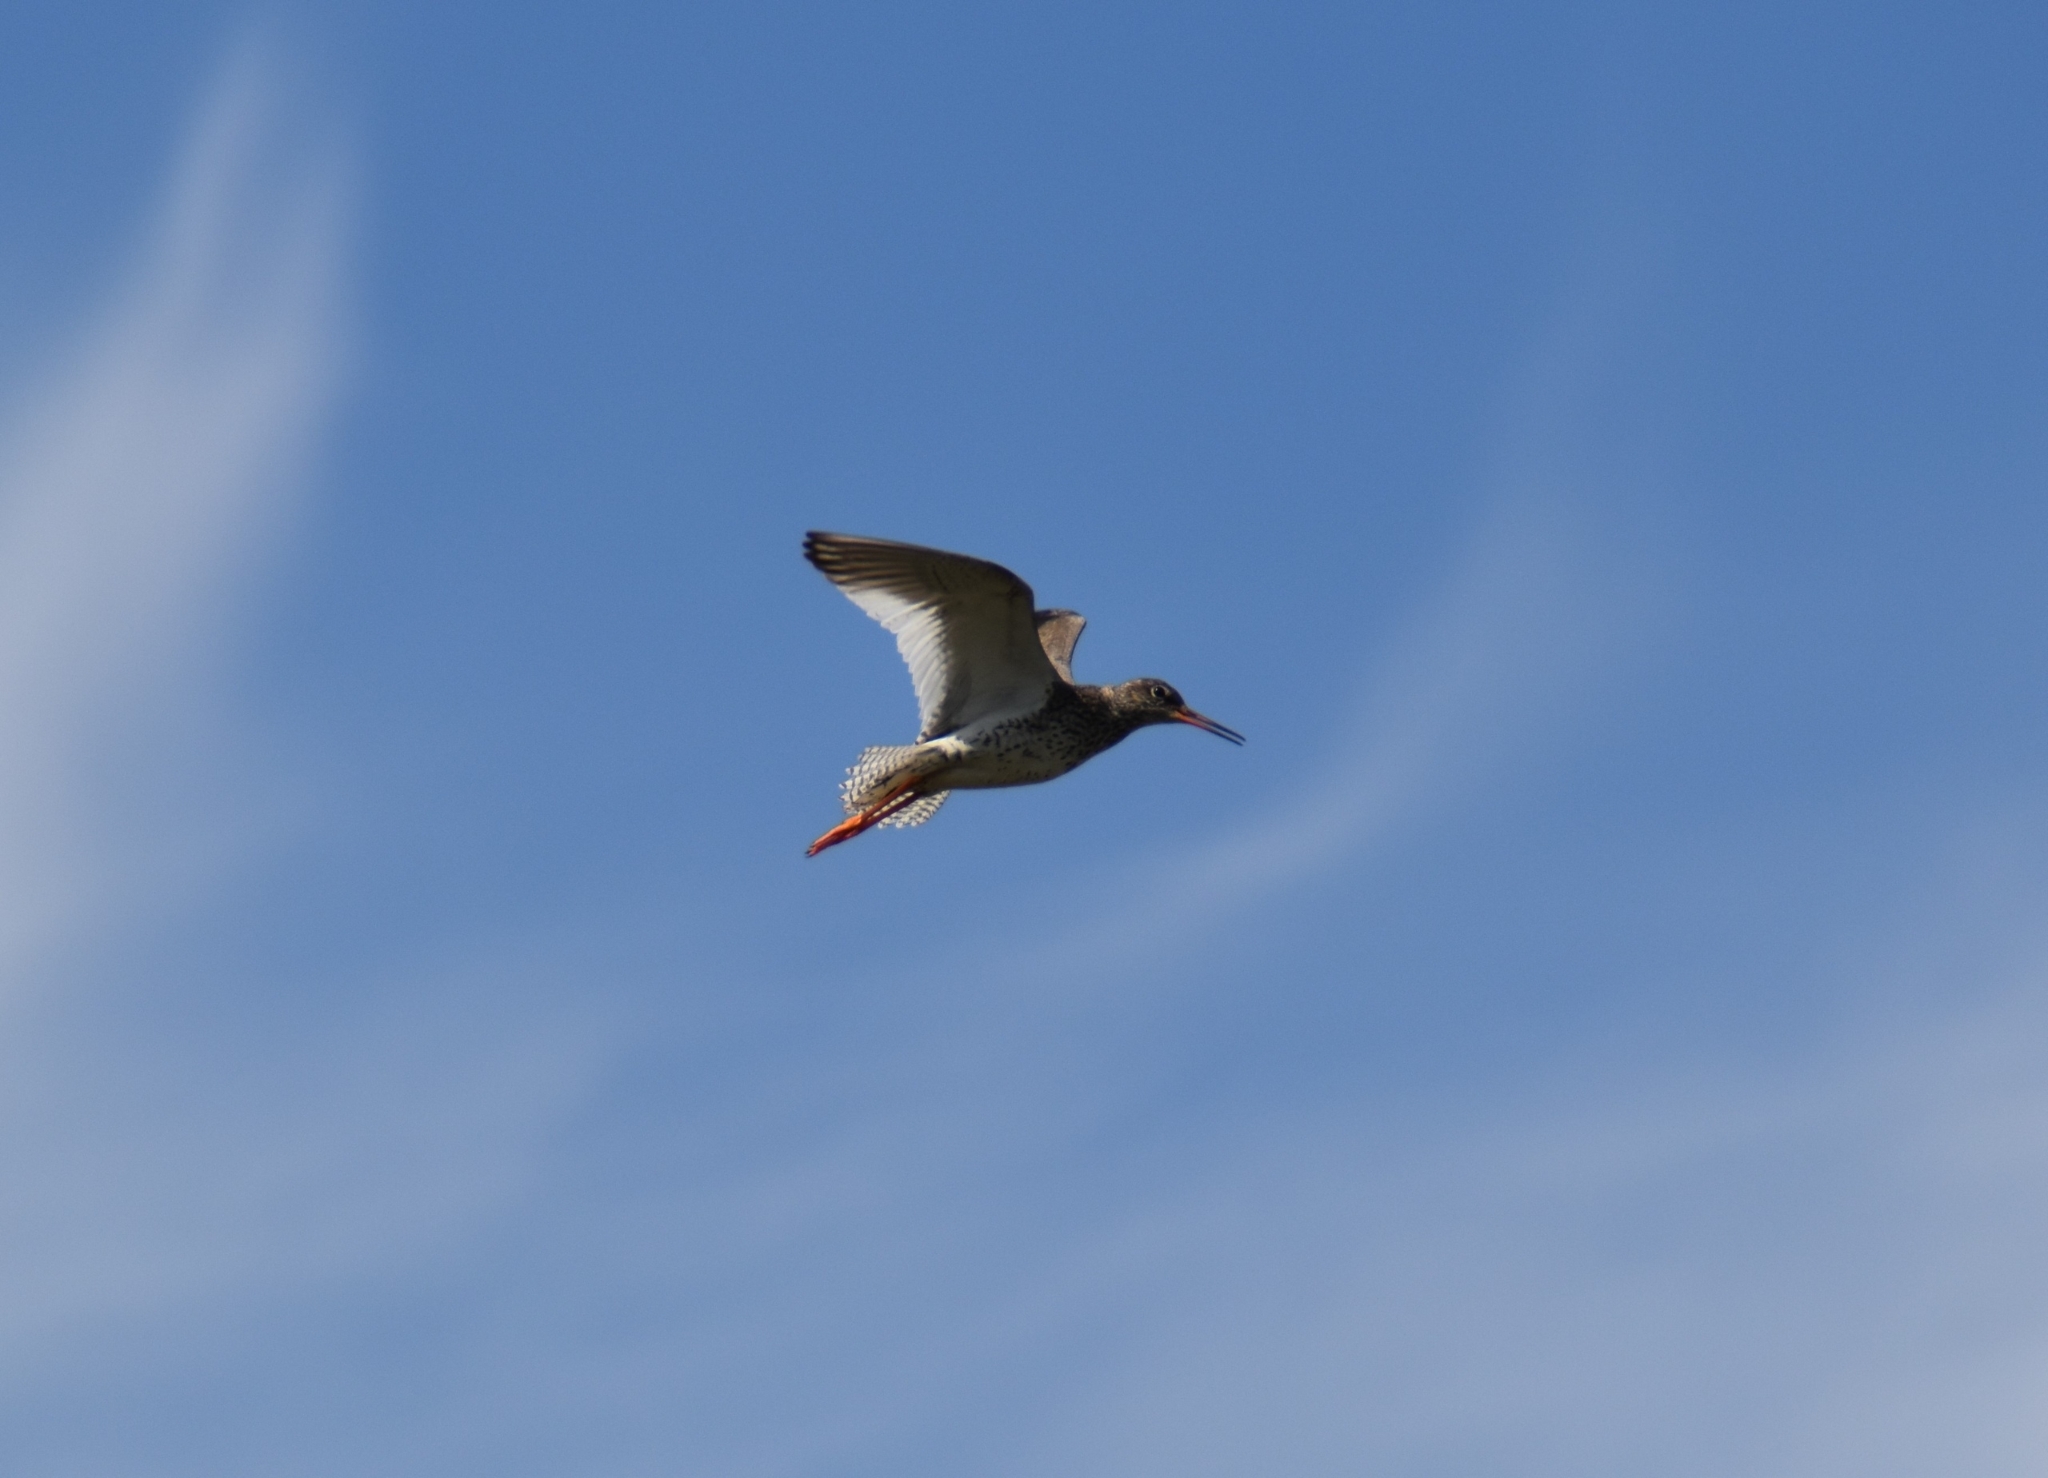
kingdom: Animalia
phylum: Chordata
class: Aves
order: Charadriiformes
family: Scolopacidae
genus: Tringa
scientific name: Tringa totanus
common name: Common redshank
